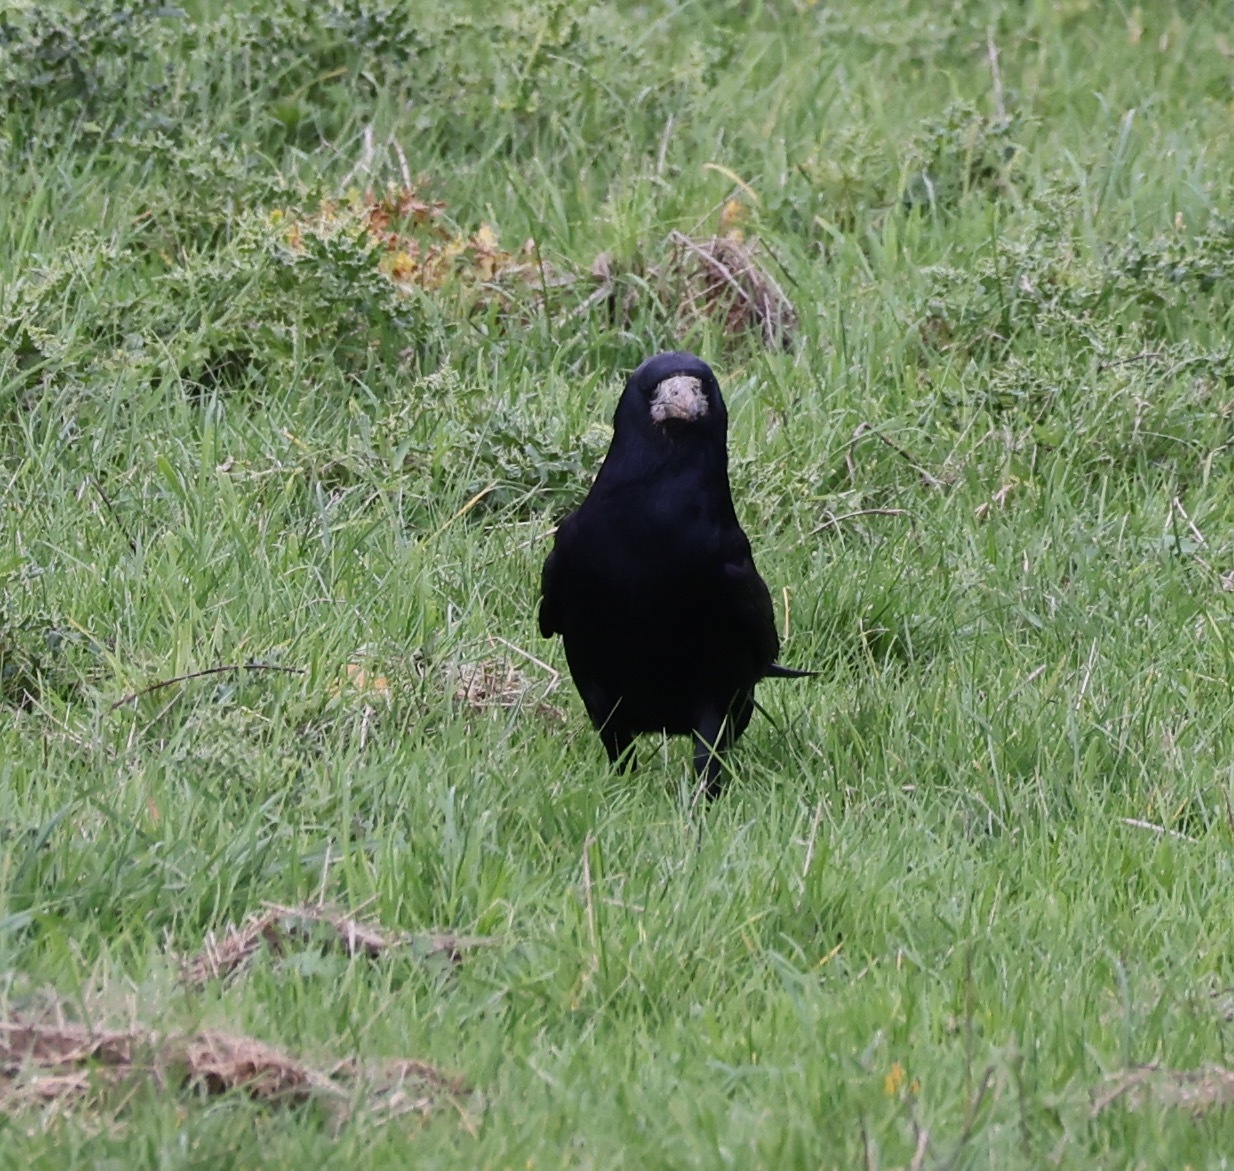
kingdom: Animalia
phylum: Chordata
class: Aves
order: Passeriformes
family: Corvidae
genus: Corvus
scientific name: Corvus frugilegus
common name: Rook
